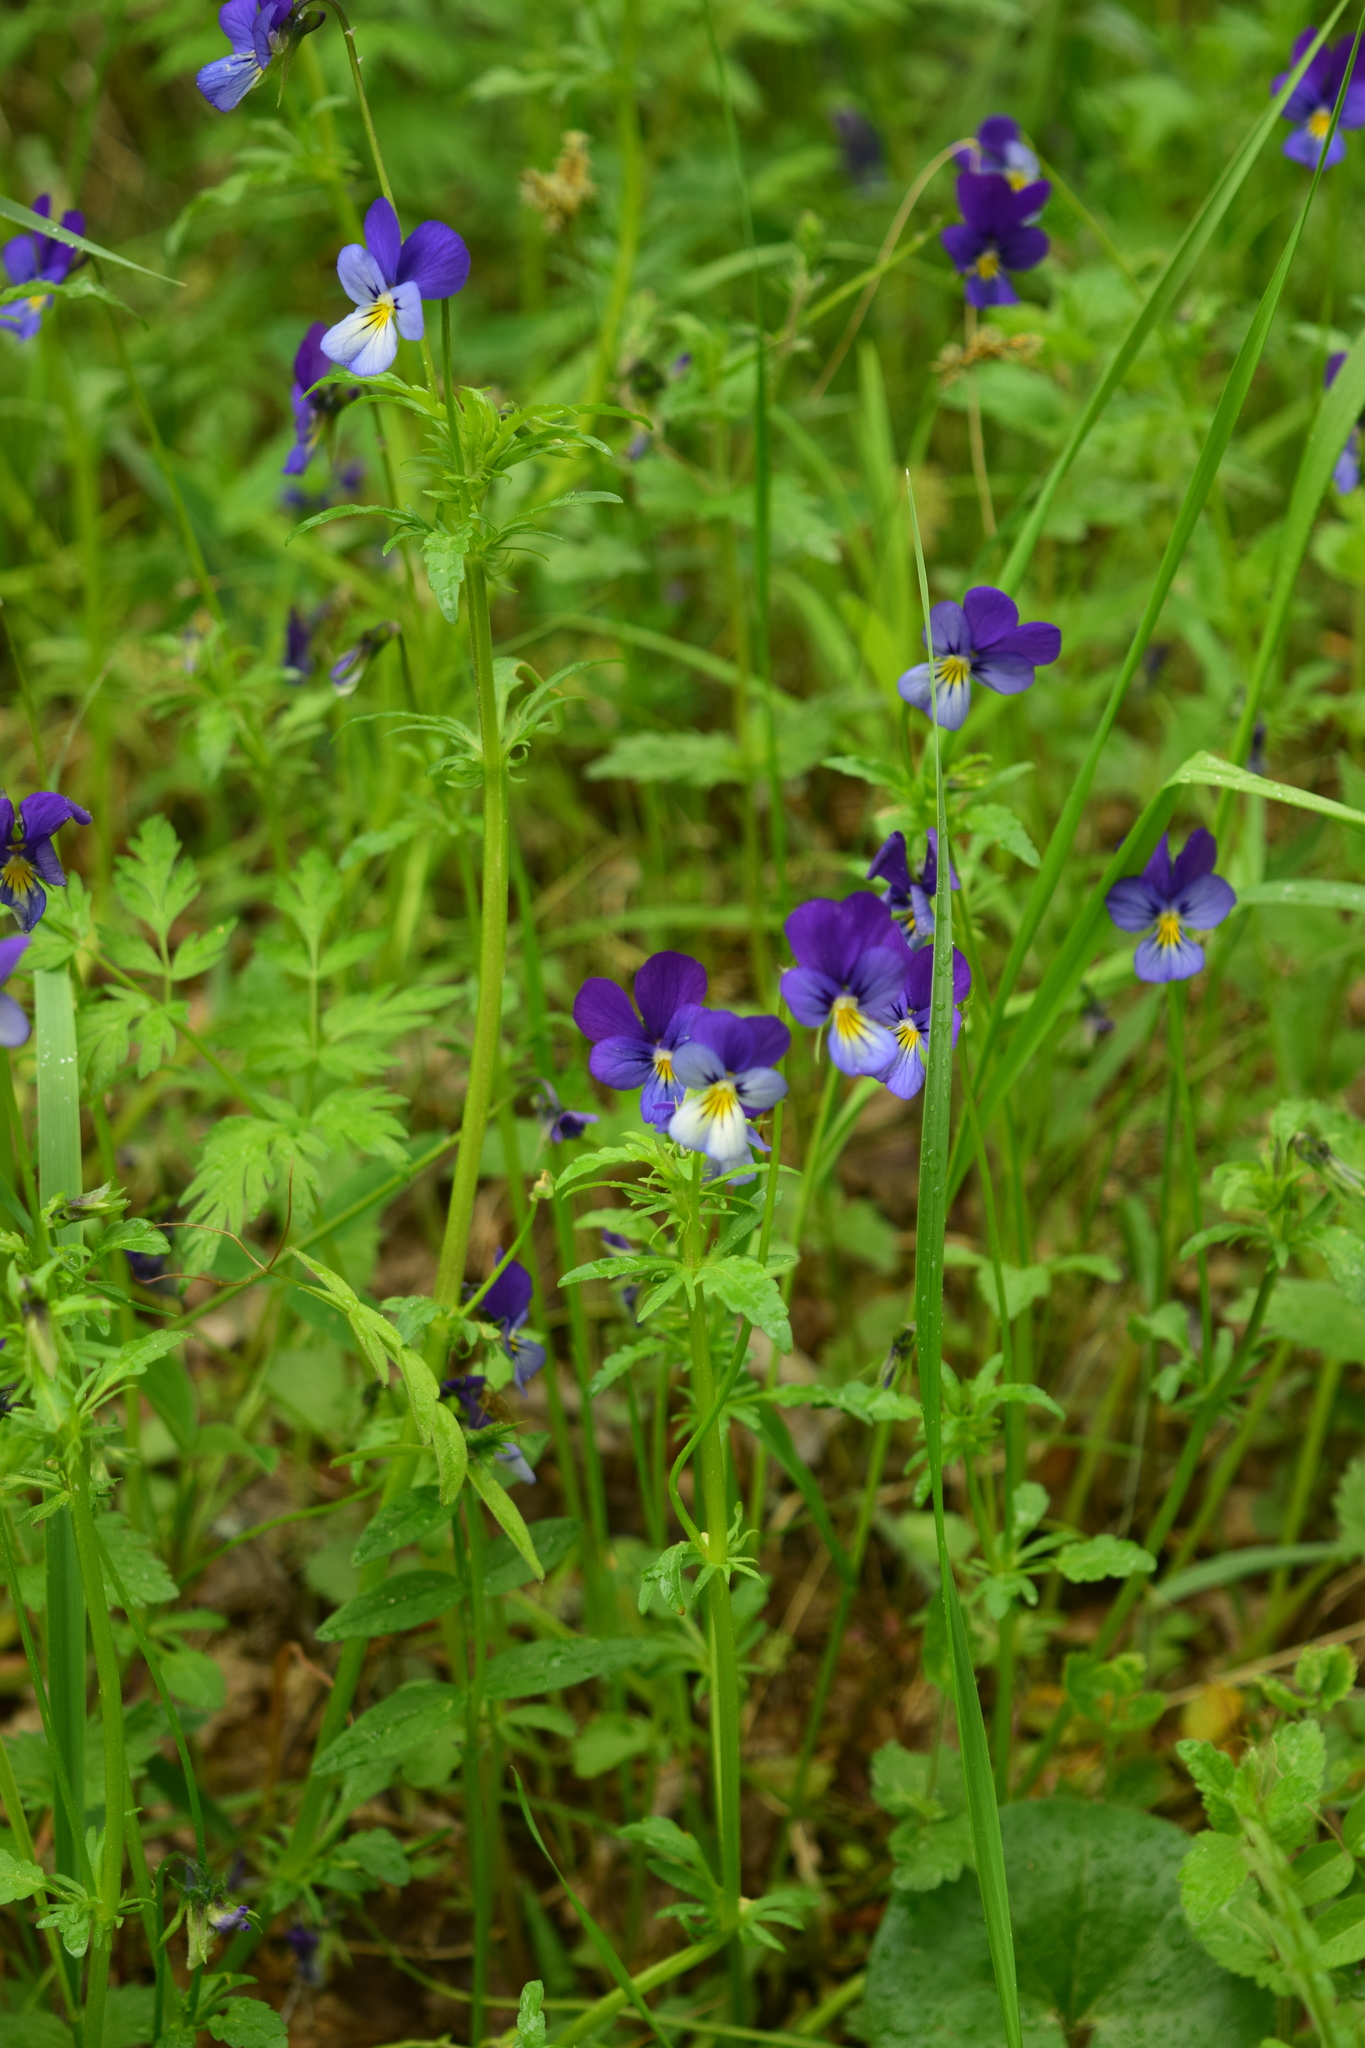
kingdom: Plantae
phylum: Tracheophyta
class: Magnoliopsida
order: Malpighiales
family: Violaceae
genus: Viola
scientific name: Viola tricolor
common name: Pansy
